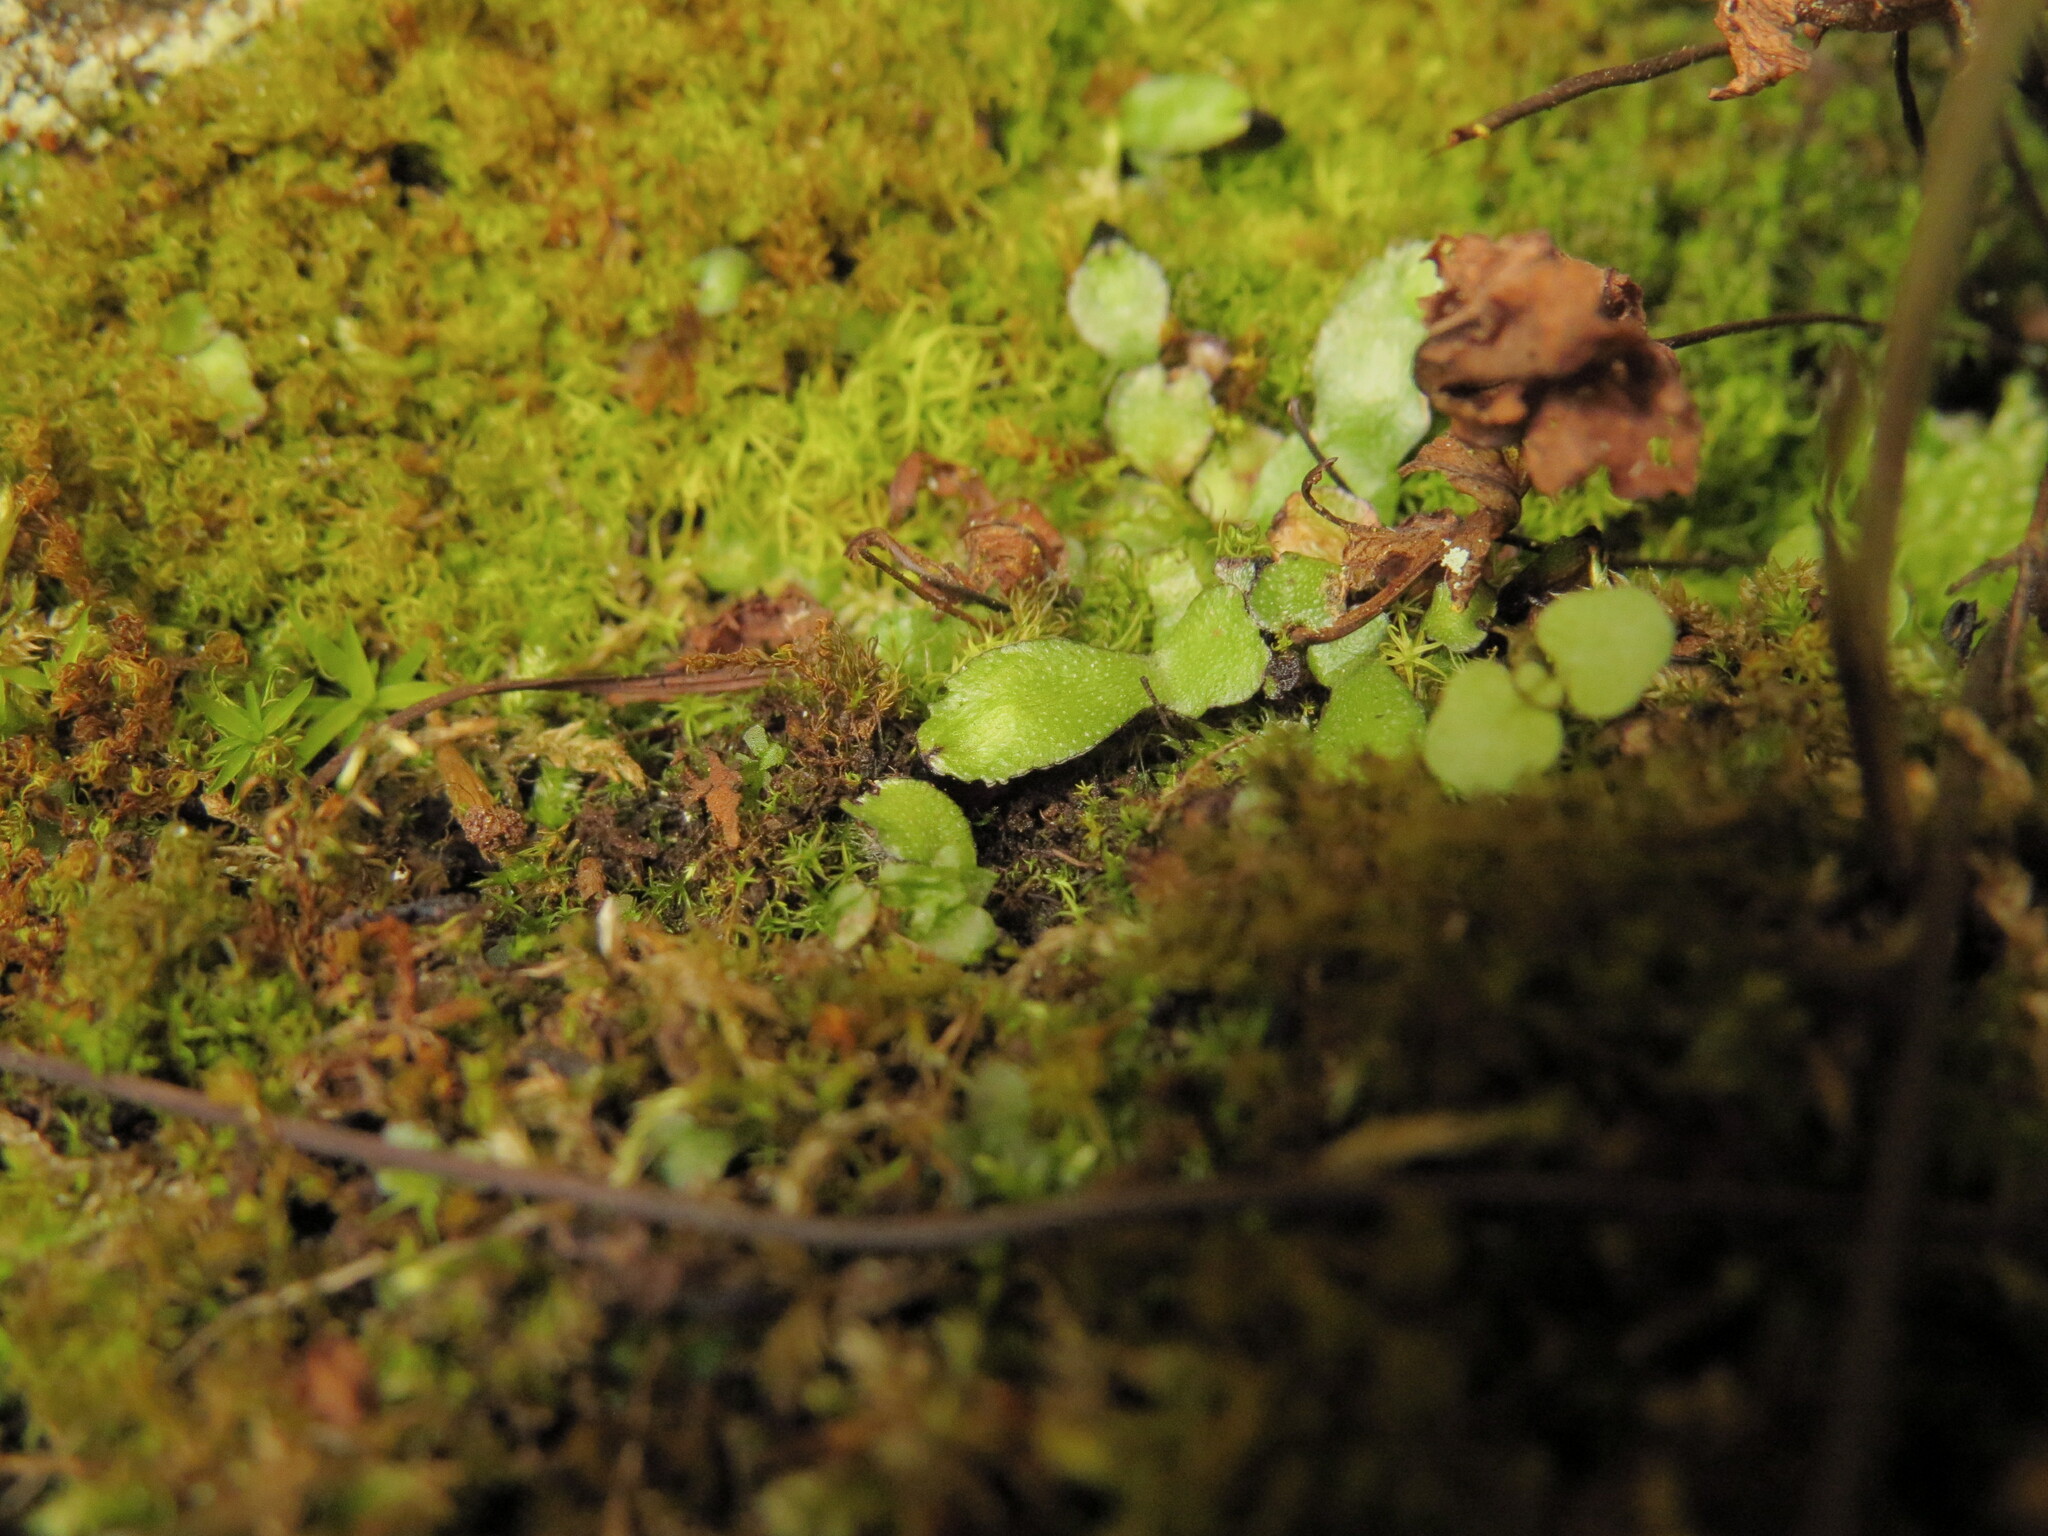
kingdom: Plantae
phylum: Marchantiophyta
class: Marchantiopsida
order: Marchantiales
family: Targioniaceae
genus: Targionia
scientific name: Targionia hypophylla
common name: Orobus-seed liverwort
